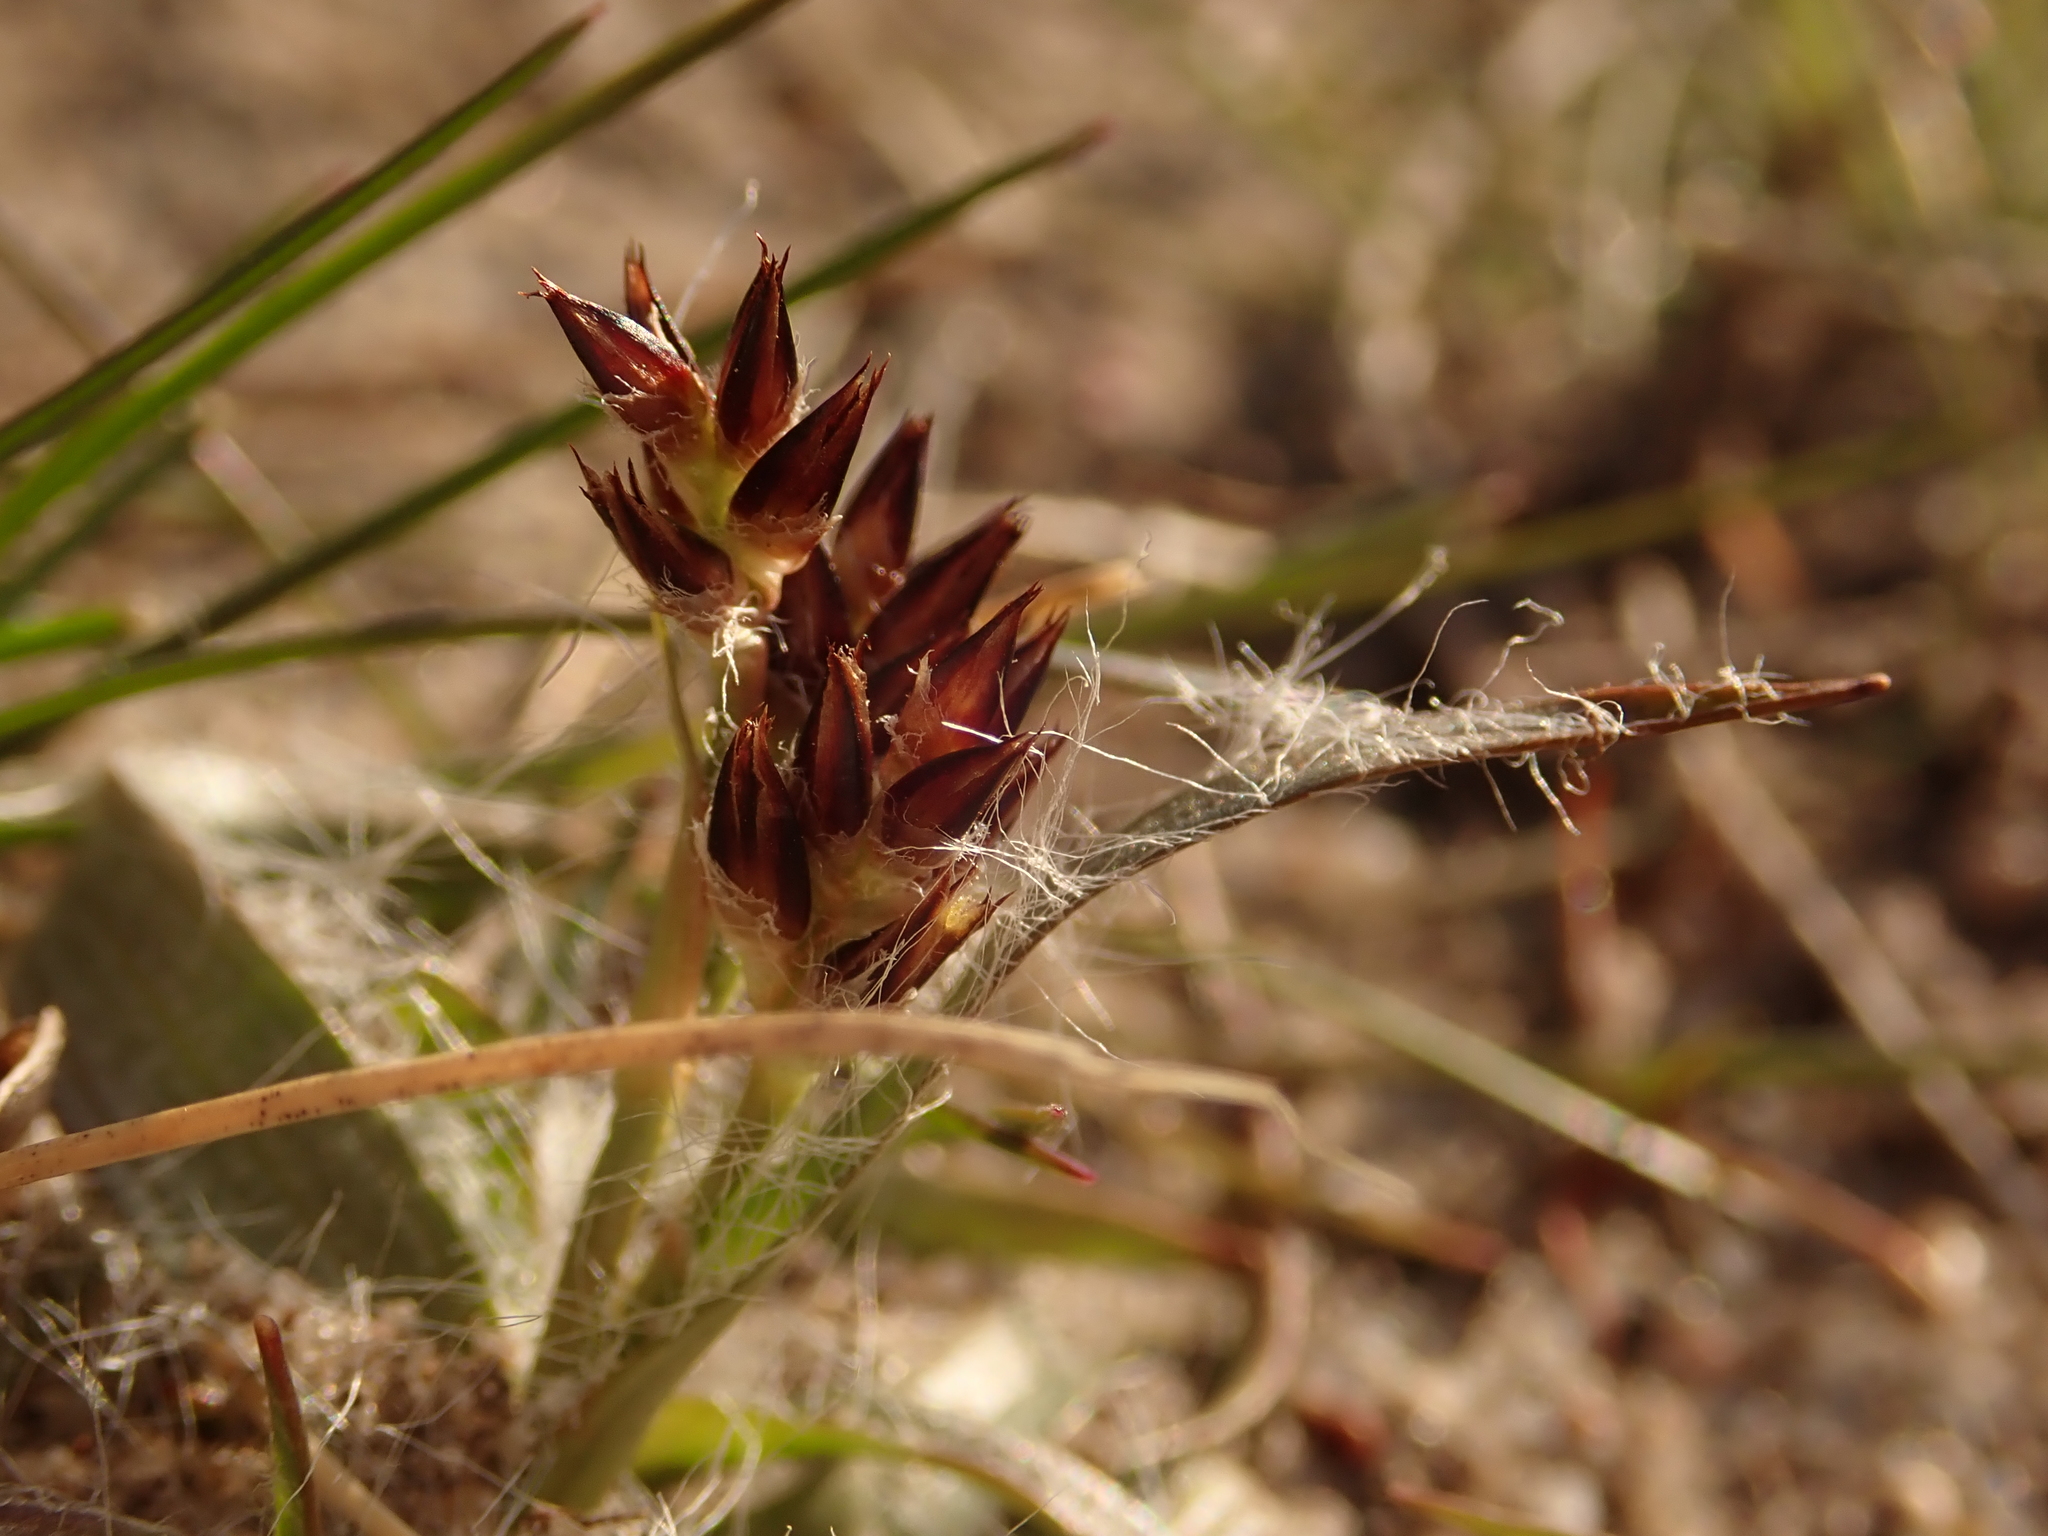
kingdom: Plantae
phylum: Tracheophyta
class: Liliopsida
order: Poales
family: Juncaceae
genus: Luzula
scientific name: Luzula campestris
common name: Field wood-rush
